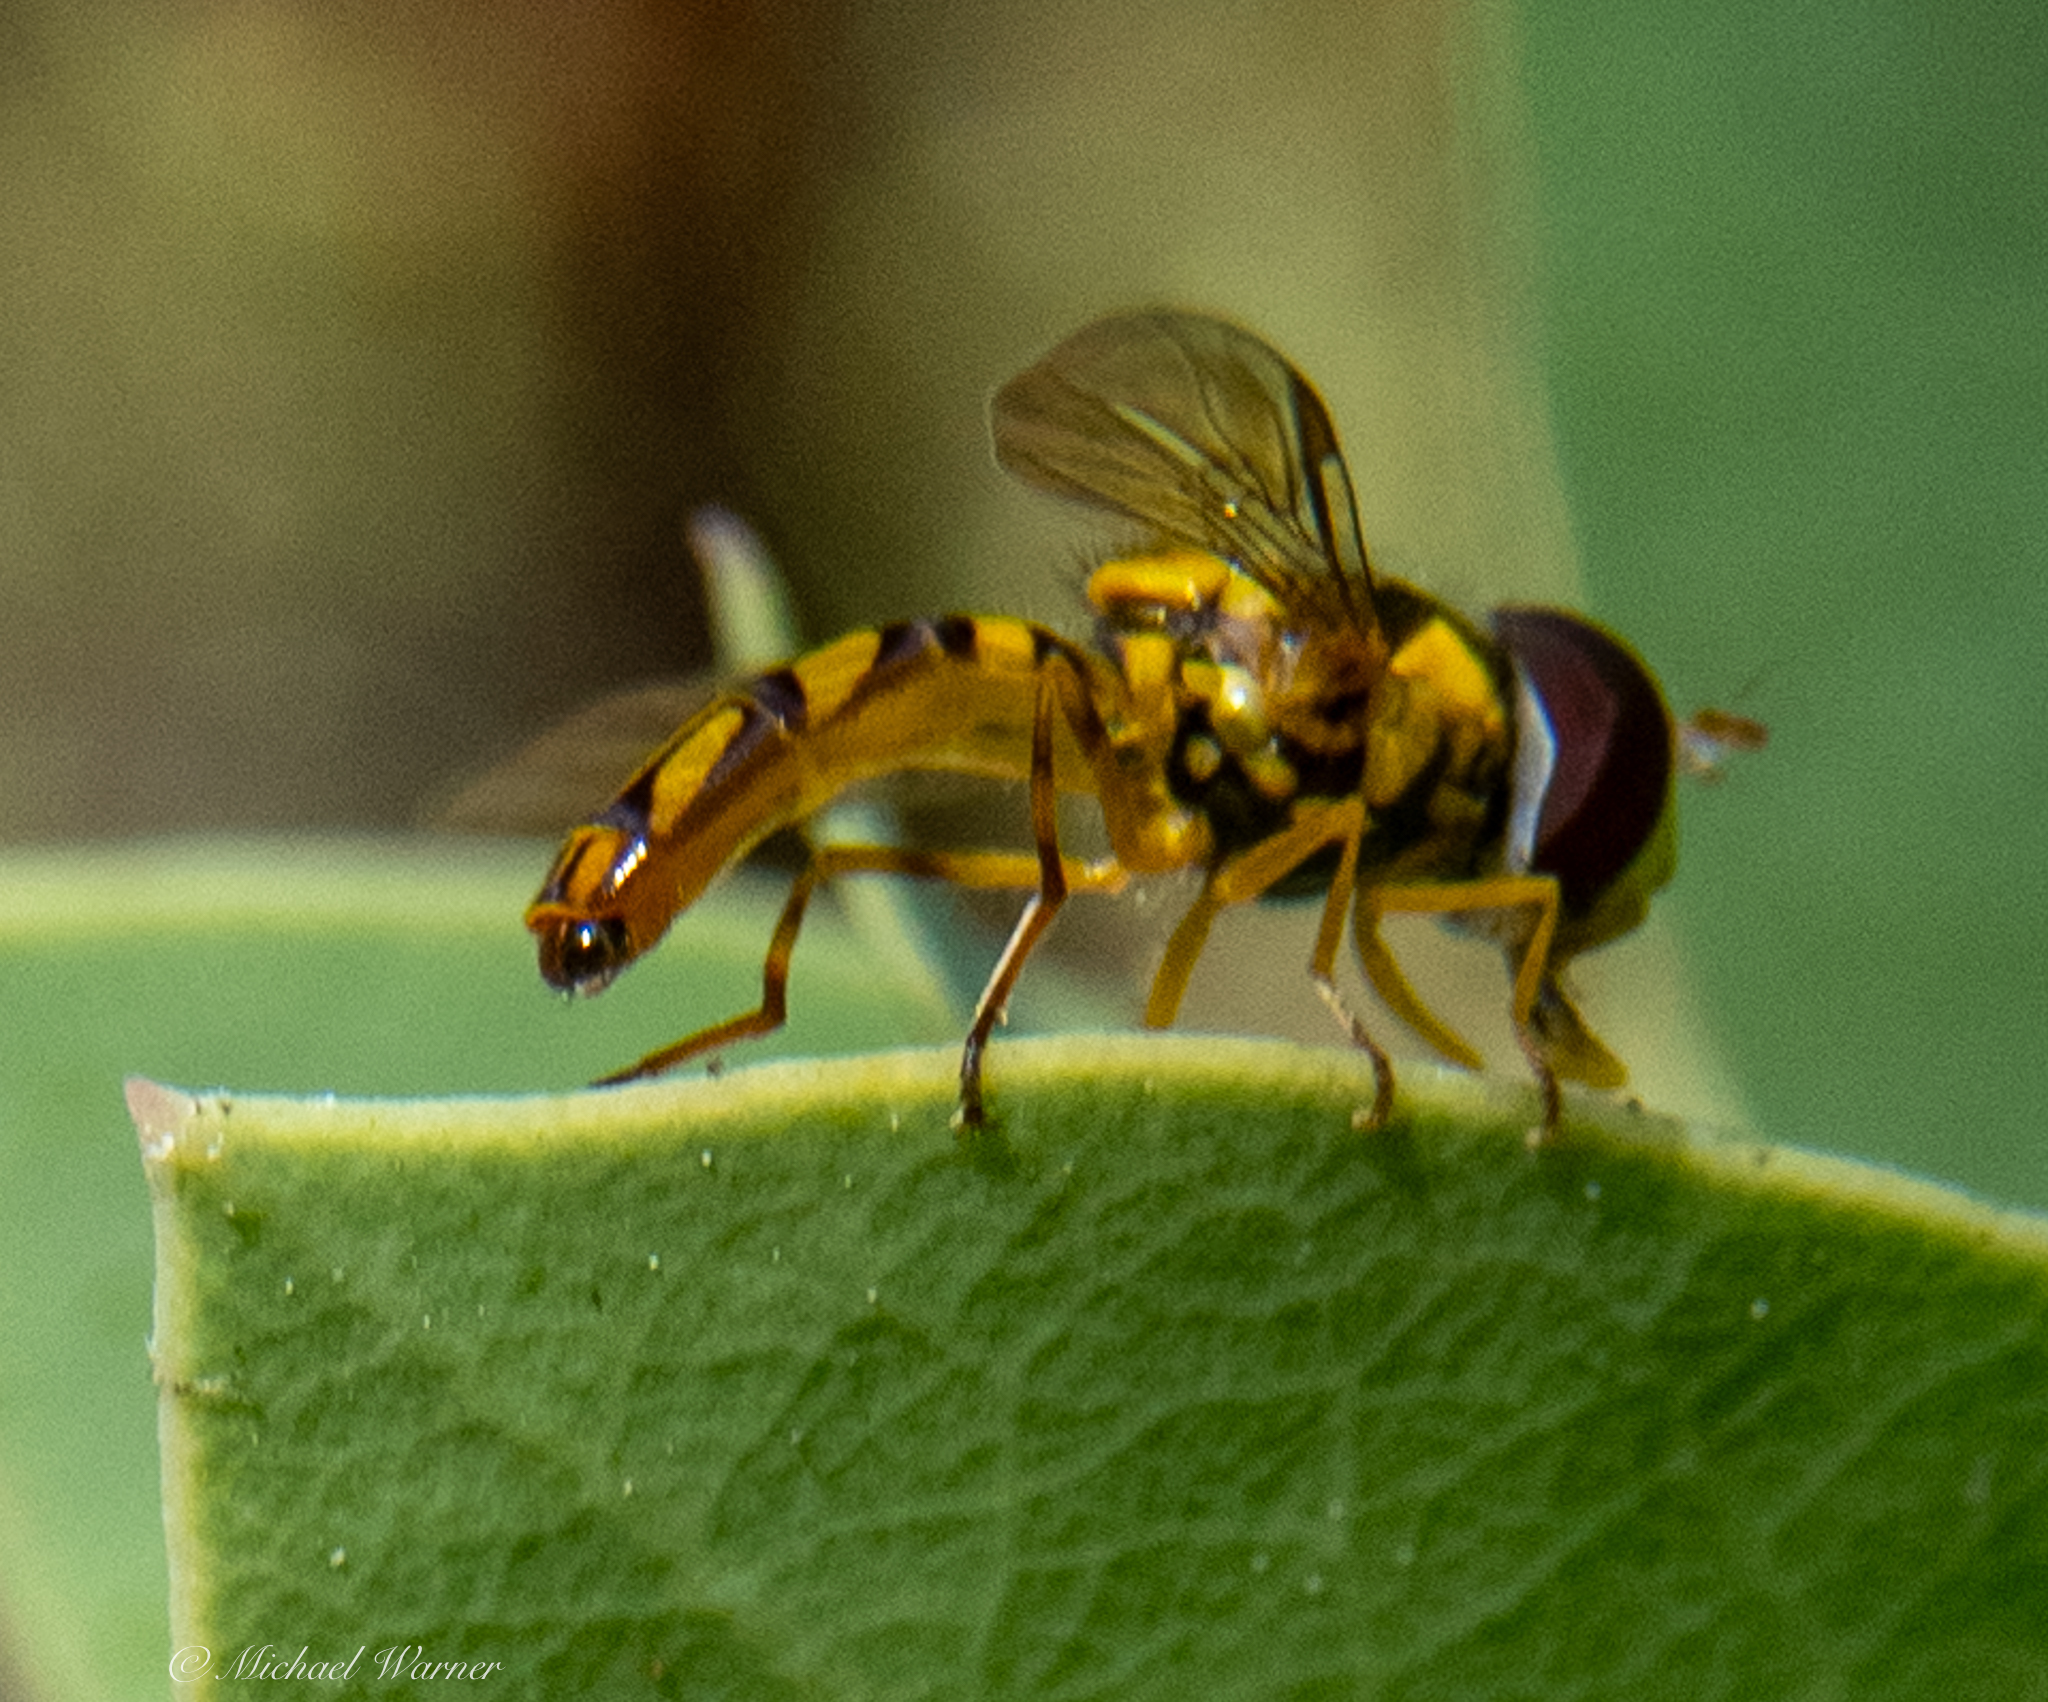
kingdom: Animalia
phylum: Arthropoda
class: Insecta
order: Diptera
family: Syrphidae
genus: Allograpta
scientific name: Allograpta obliqua
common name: Common oblique syrphid
